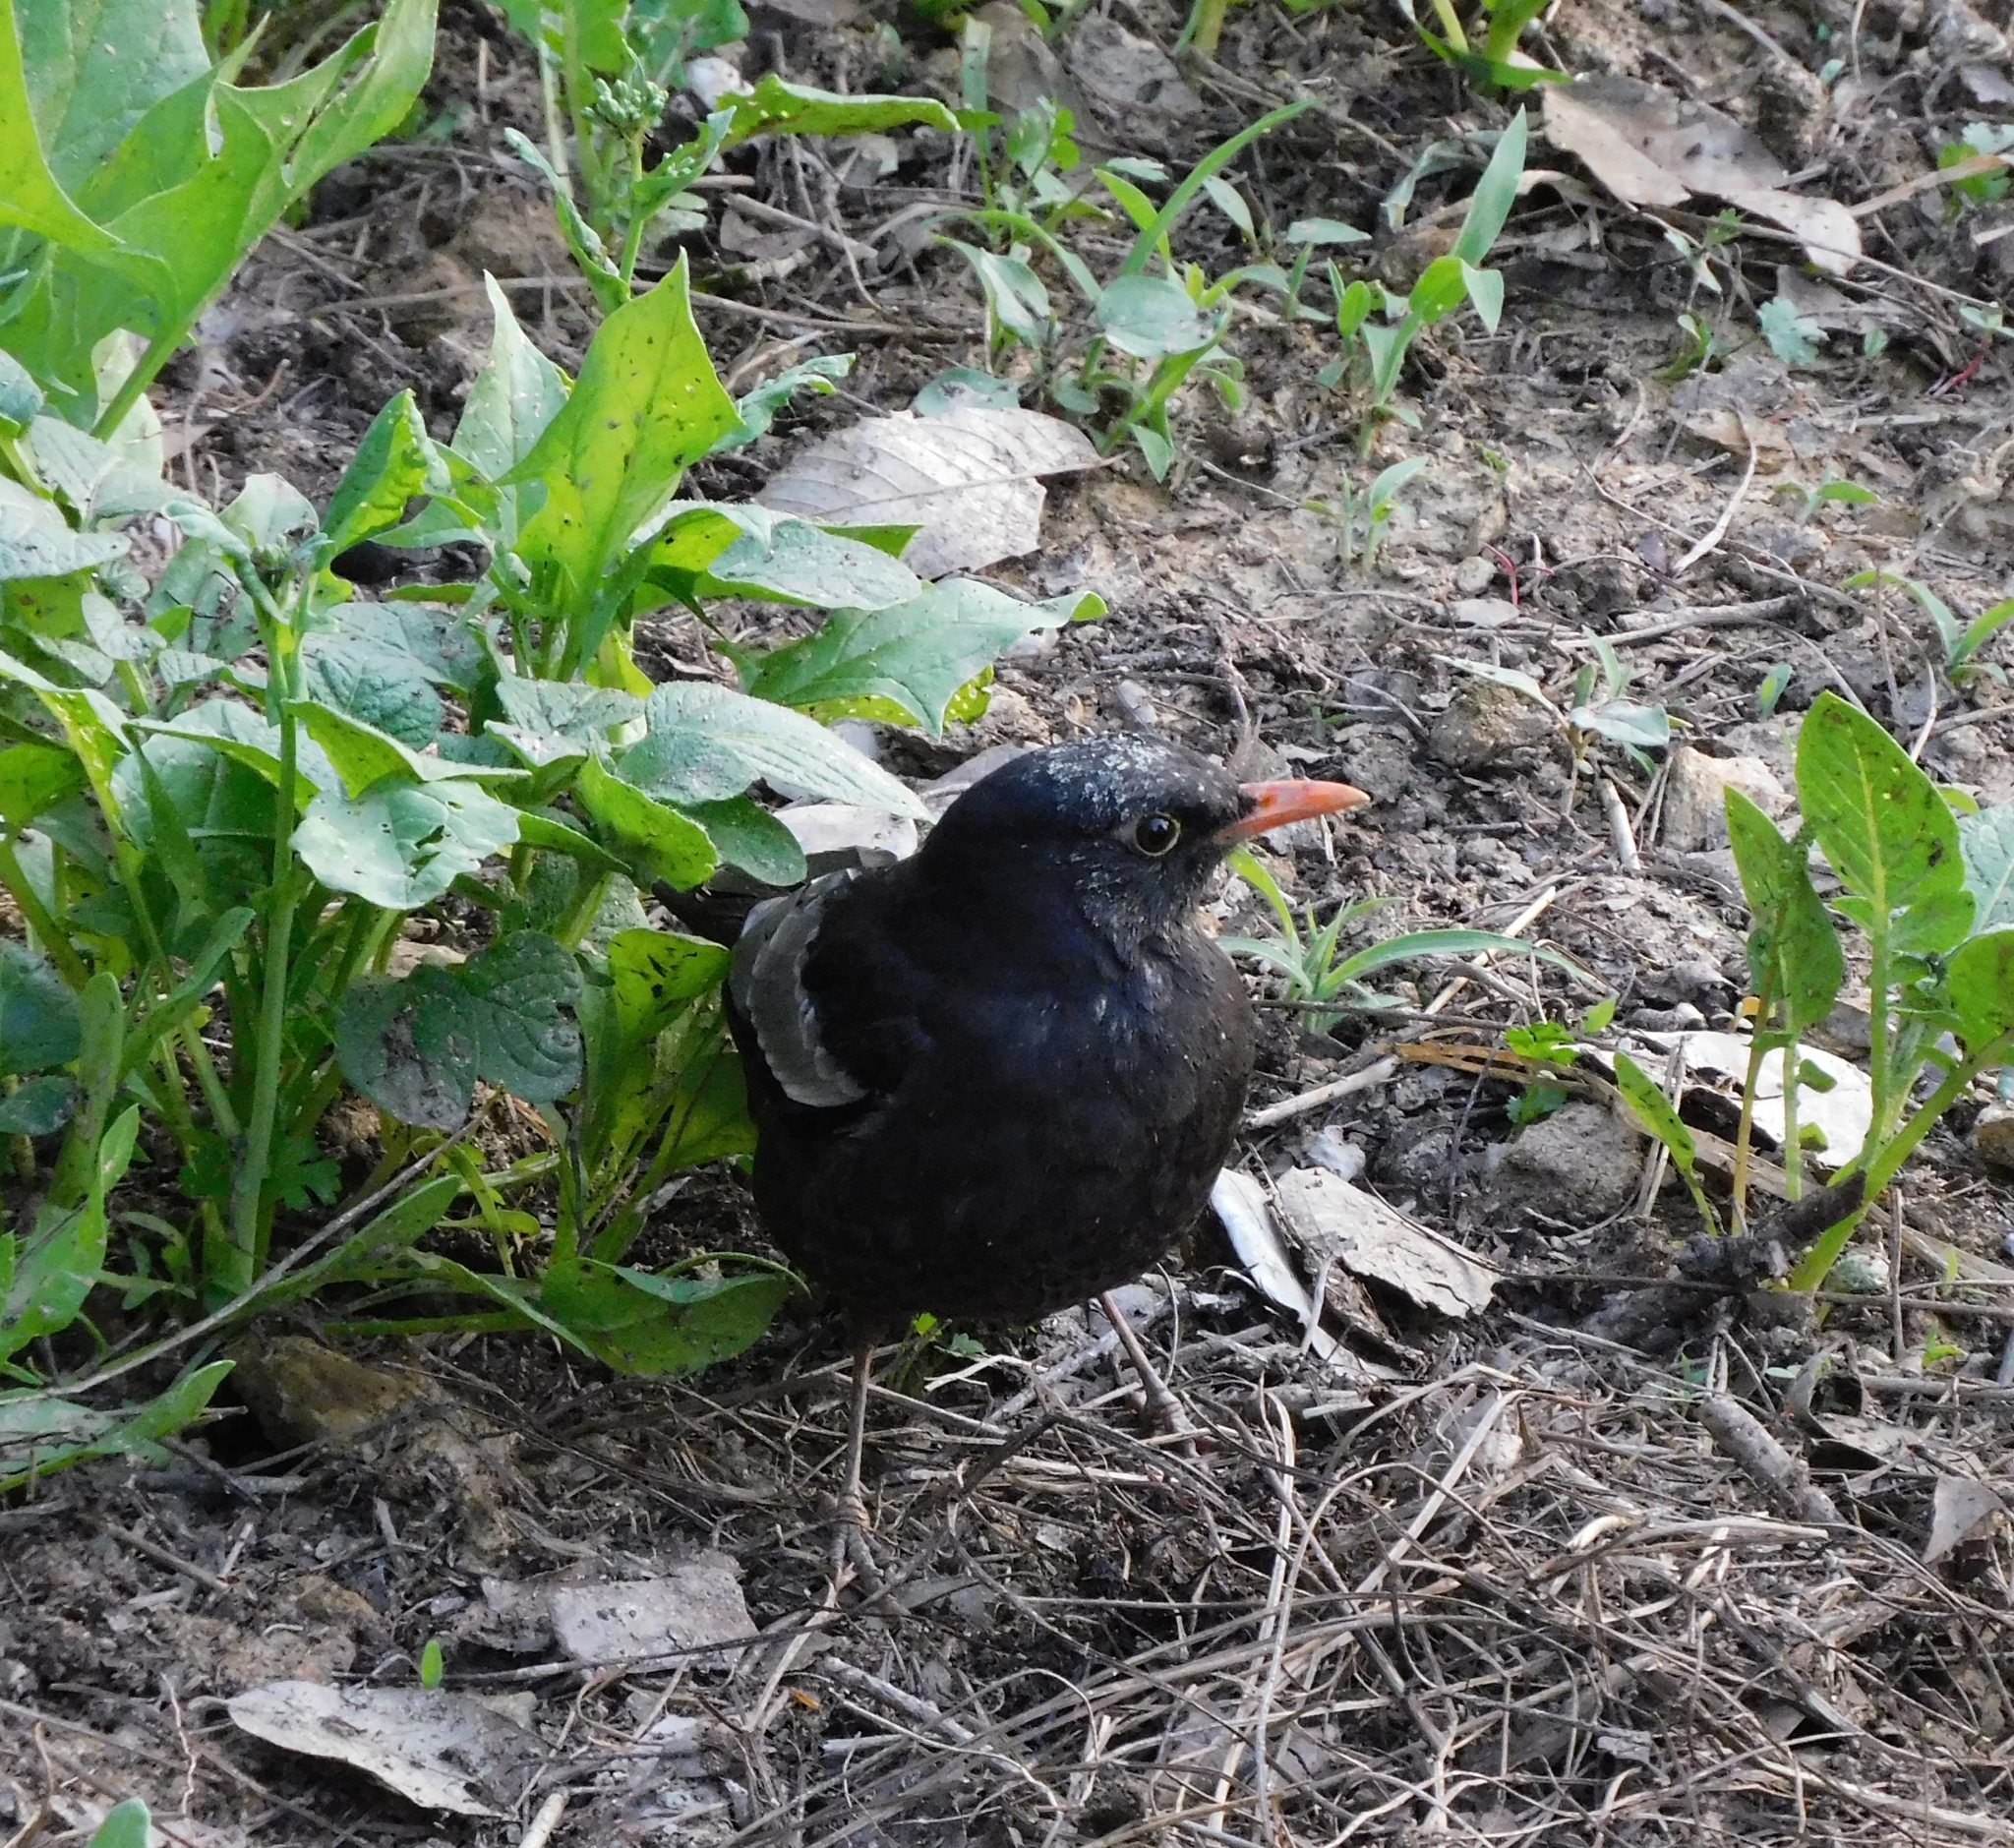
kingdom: Animalia
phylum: Chordata
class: Aves
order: Passeriformes
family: Turdidae
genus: Turdus
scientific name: Turdus boulboul
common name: Grey-winged blackbird
